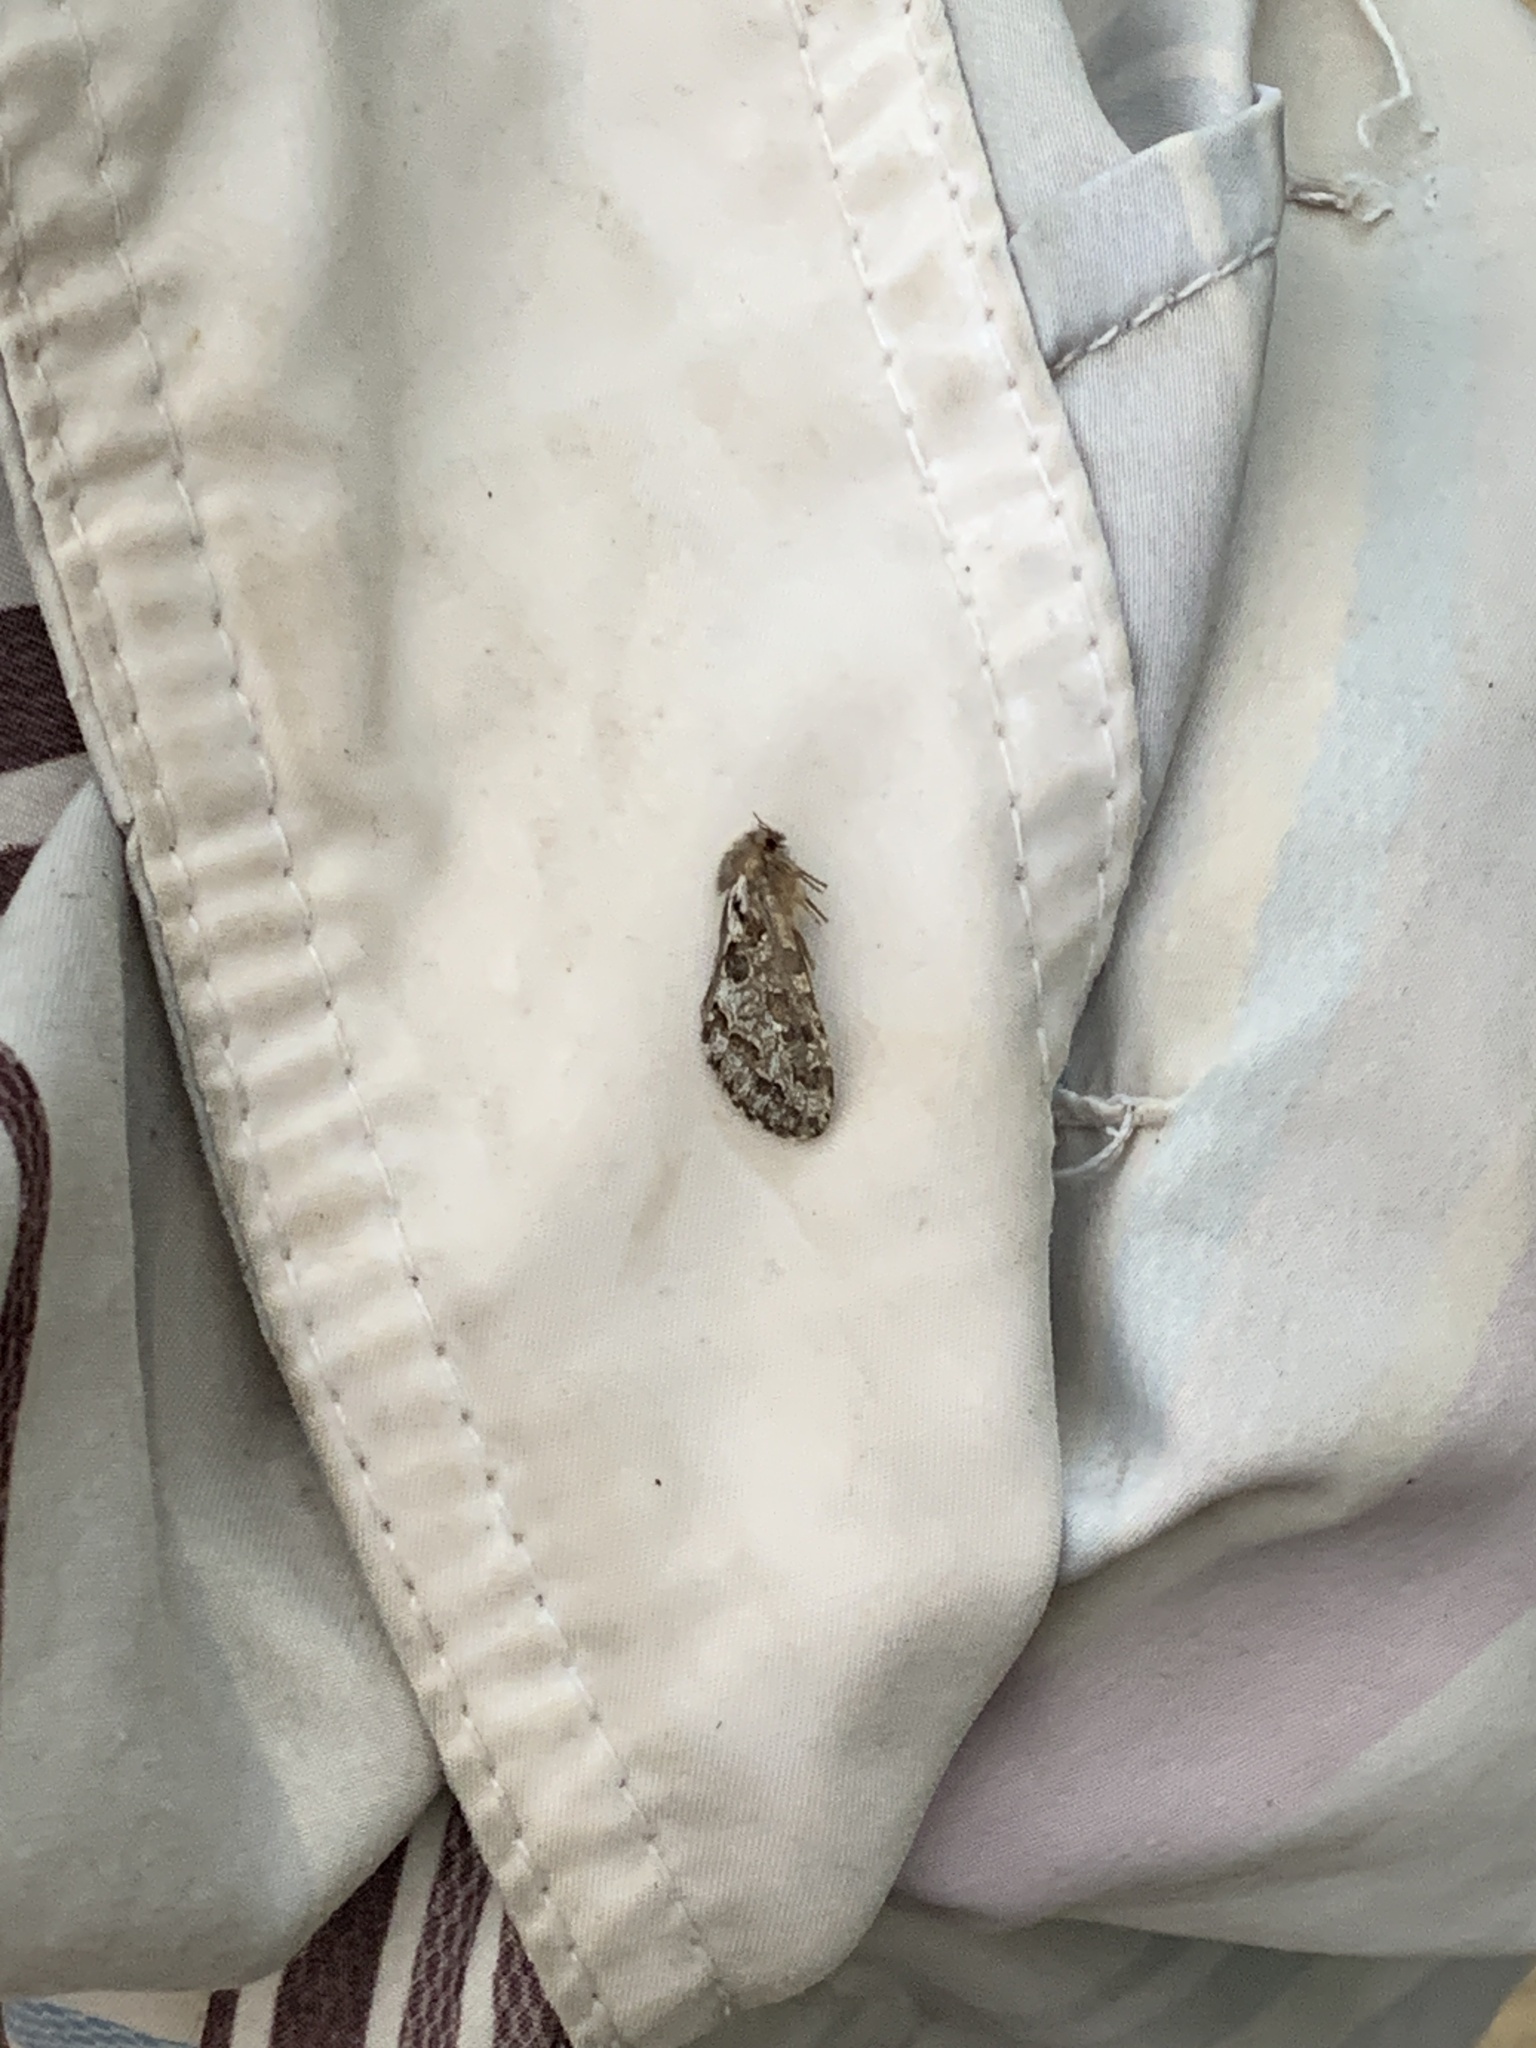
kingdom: Animalia
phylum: Arthropoda
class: Insecta
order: Lepidoptera
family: Hepialidae
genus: Korscheltellus
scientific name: Korscheltellus gracilis
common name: Conifer swift moth
